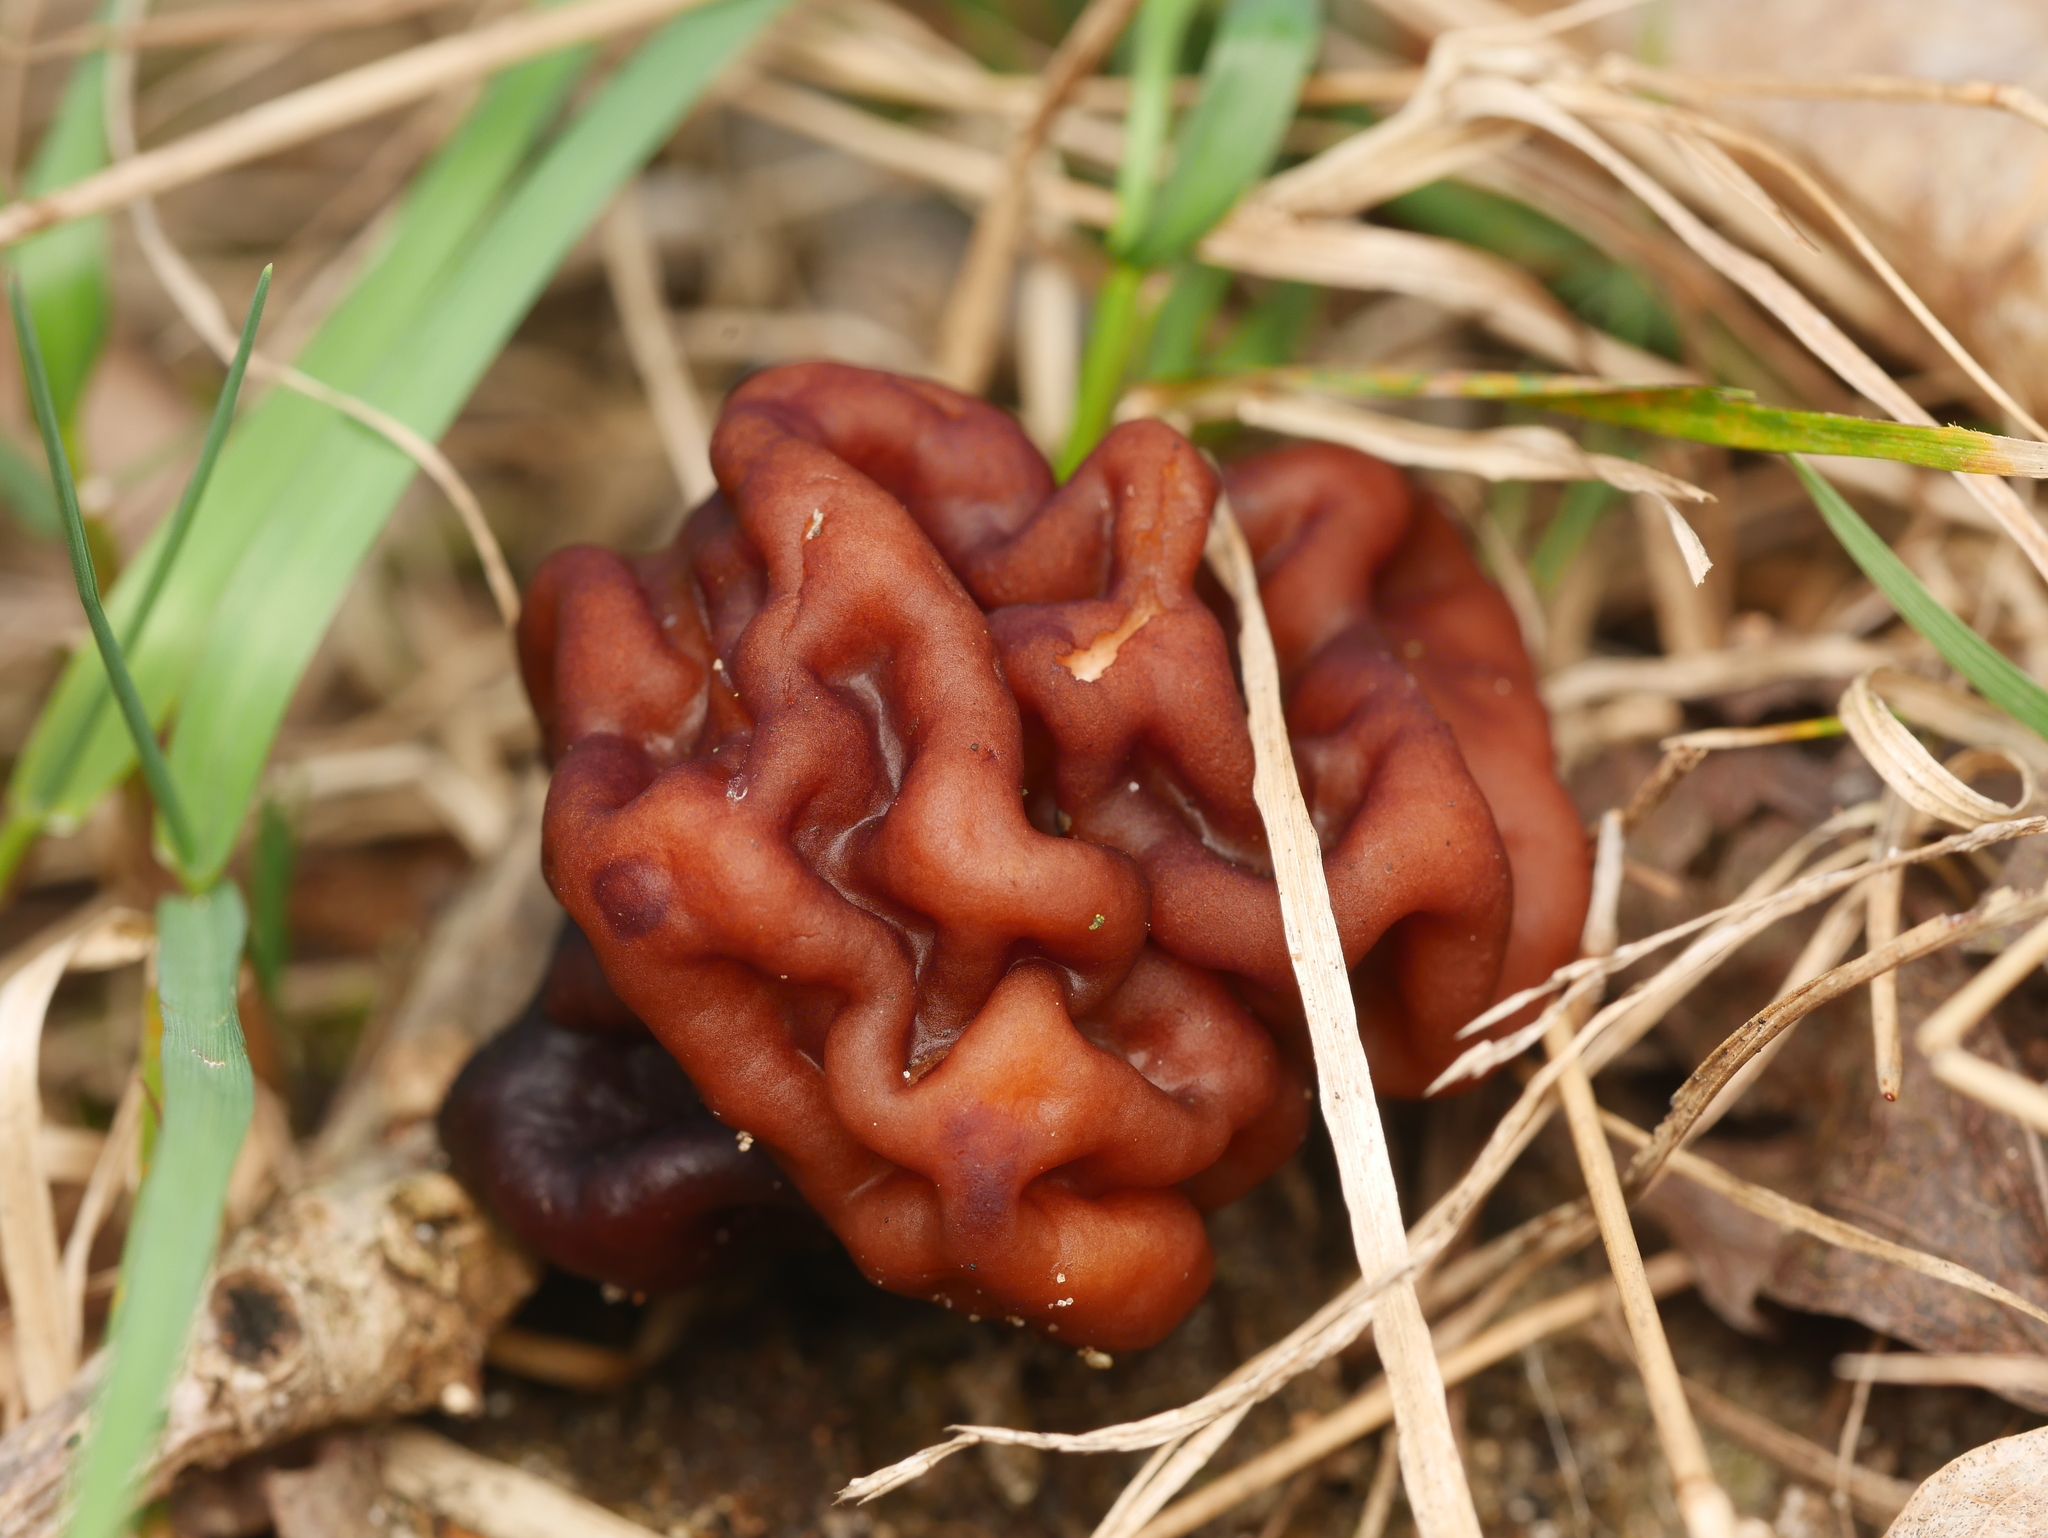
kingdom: Fungi
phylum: Ascomycota
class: Pezizomycetes
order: Pezizales
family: Discinaceae
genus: Gyromitra
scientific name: Gyromitra esculenta
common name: False morel
